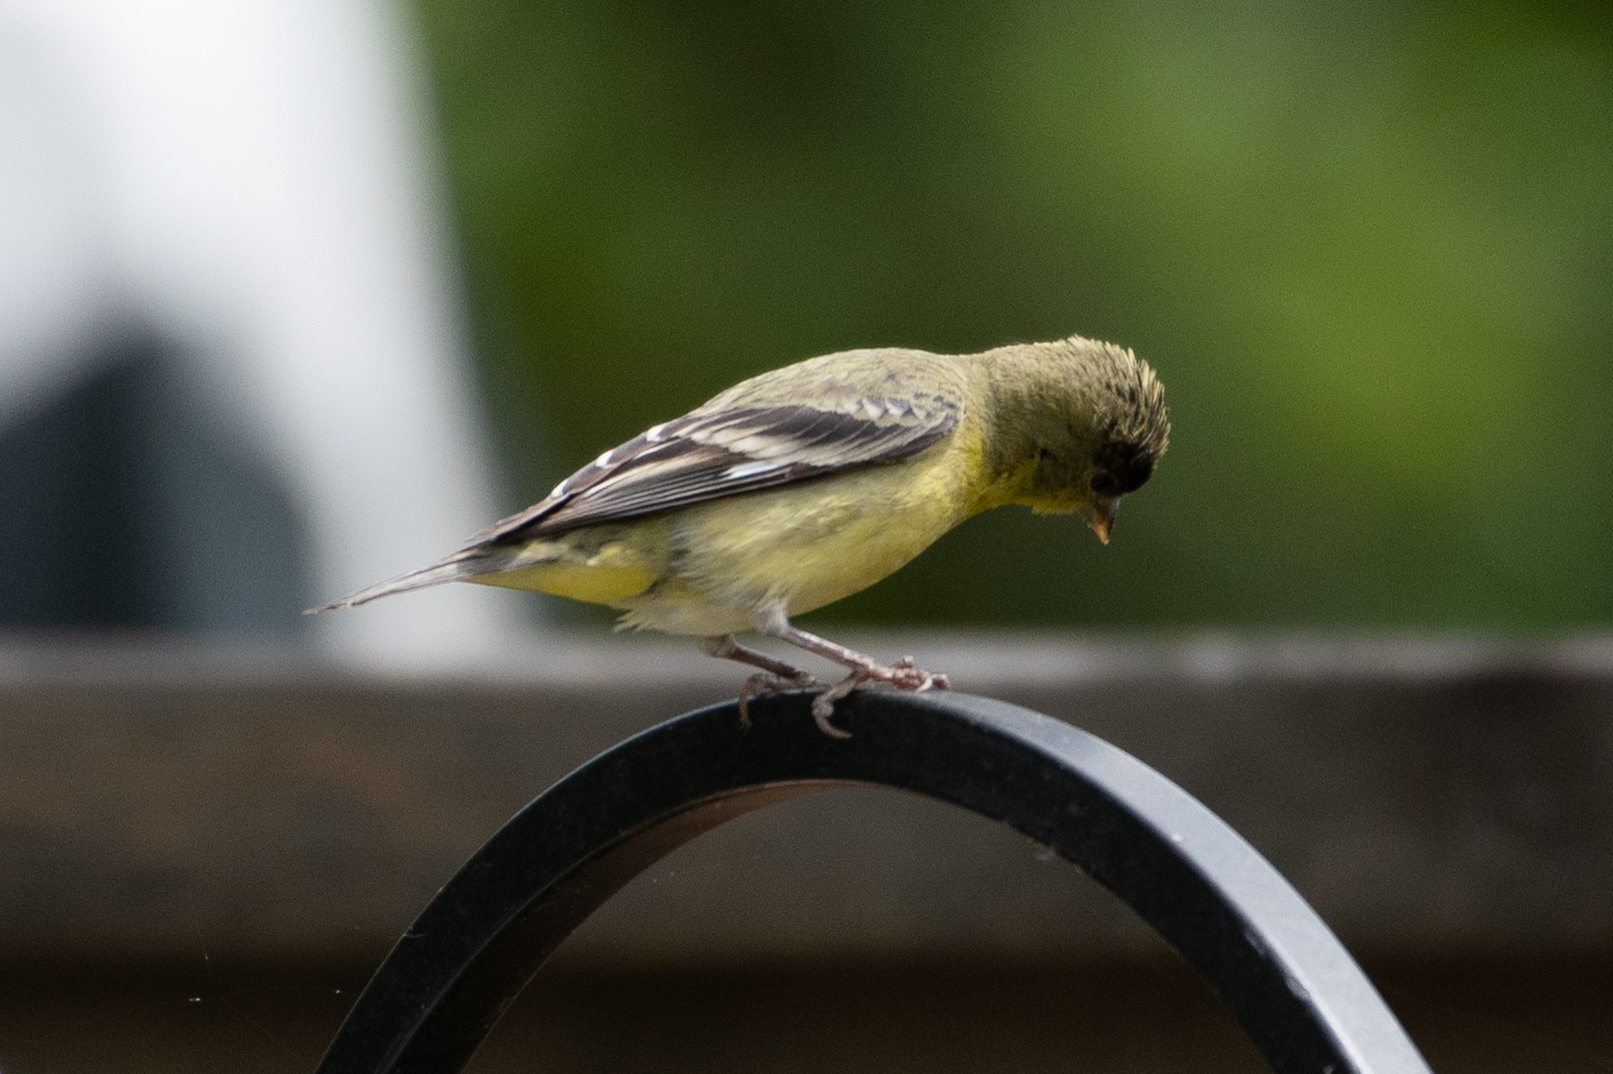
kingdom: Animalia
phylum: Chordata
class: Aves
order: Passeriformes
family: Fringillidae
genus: Spinus
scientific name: Spinus psaltria
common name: Lesser goldfinch
